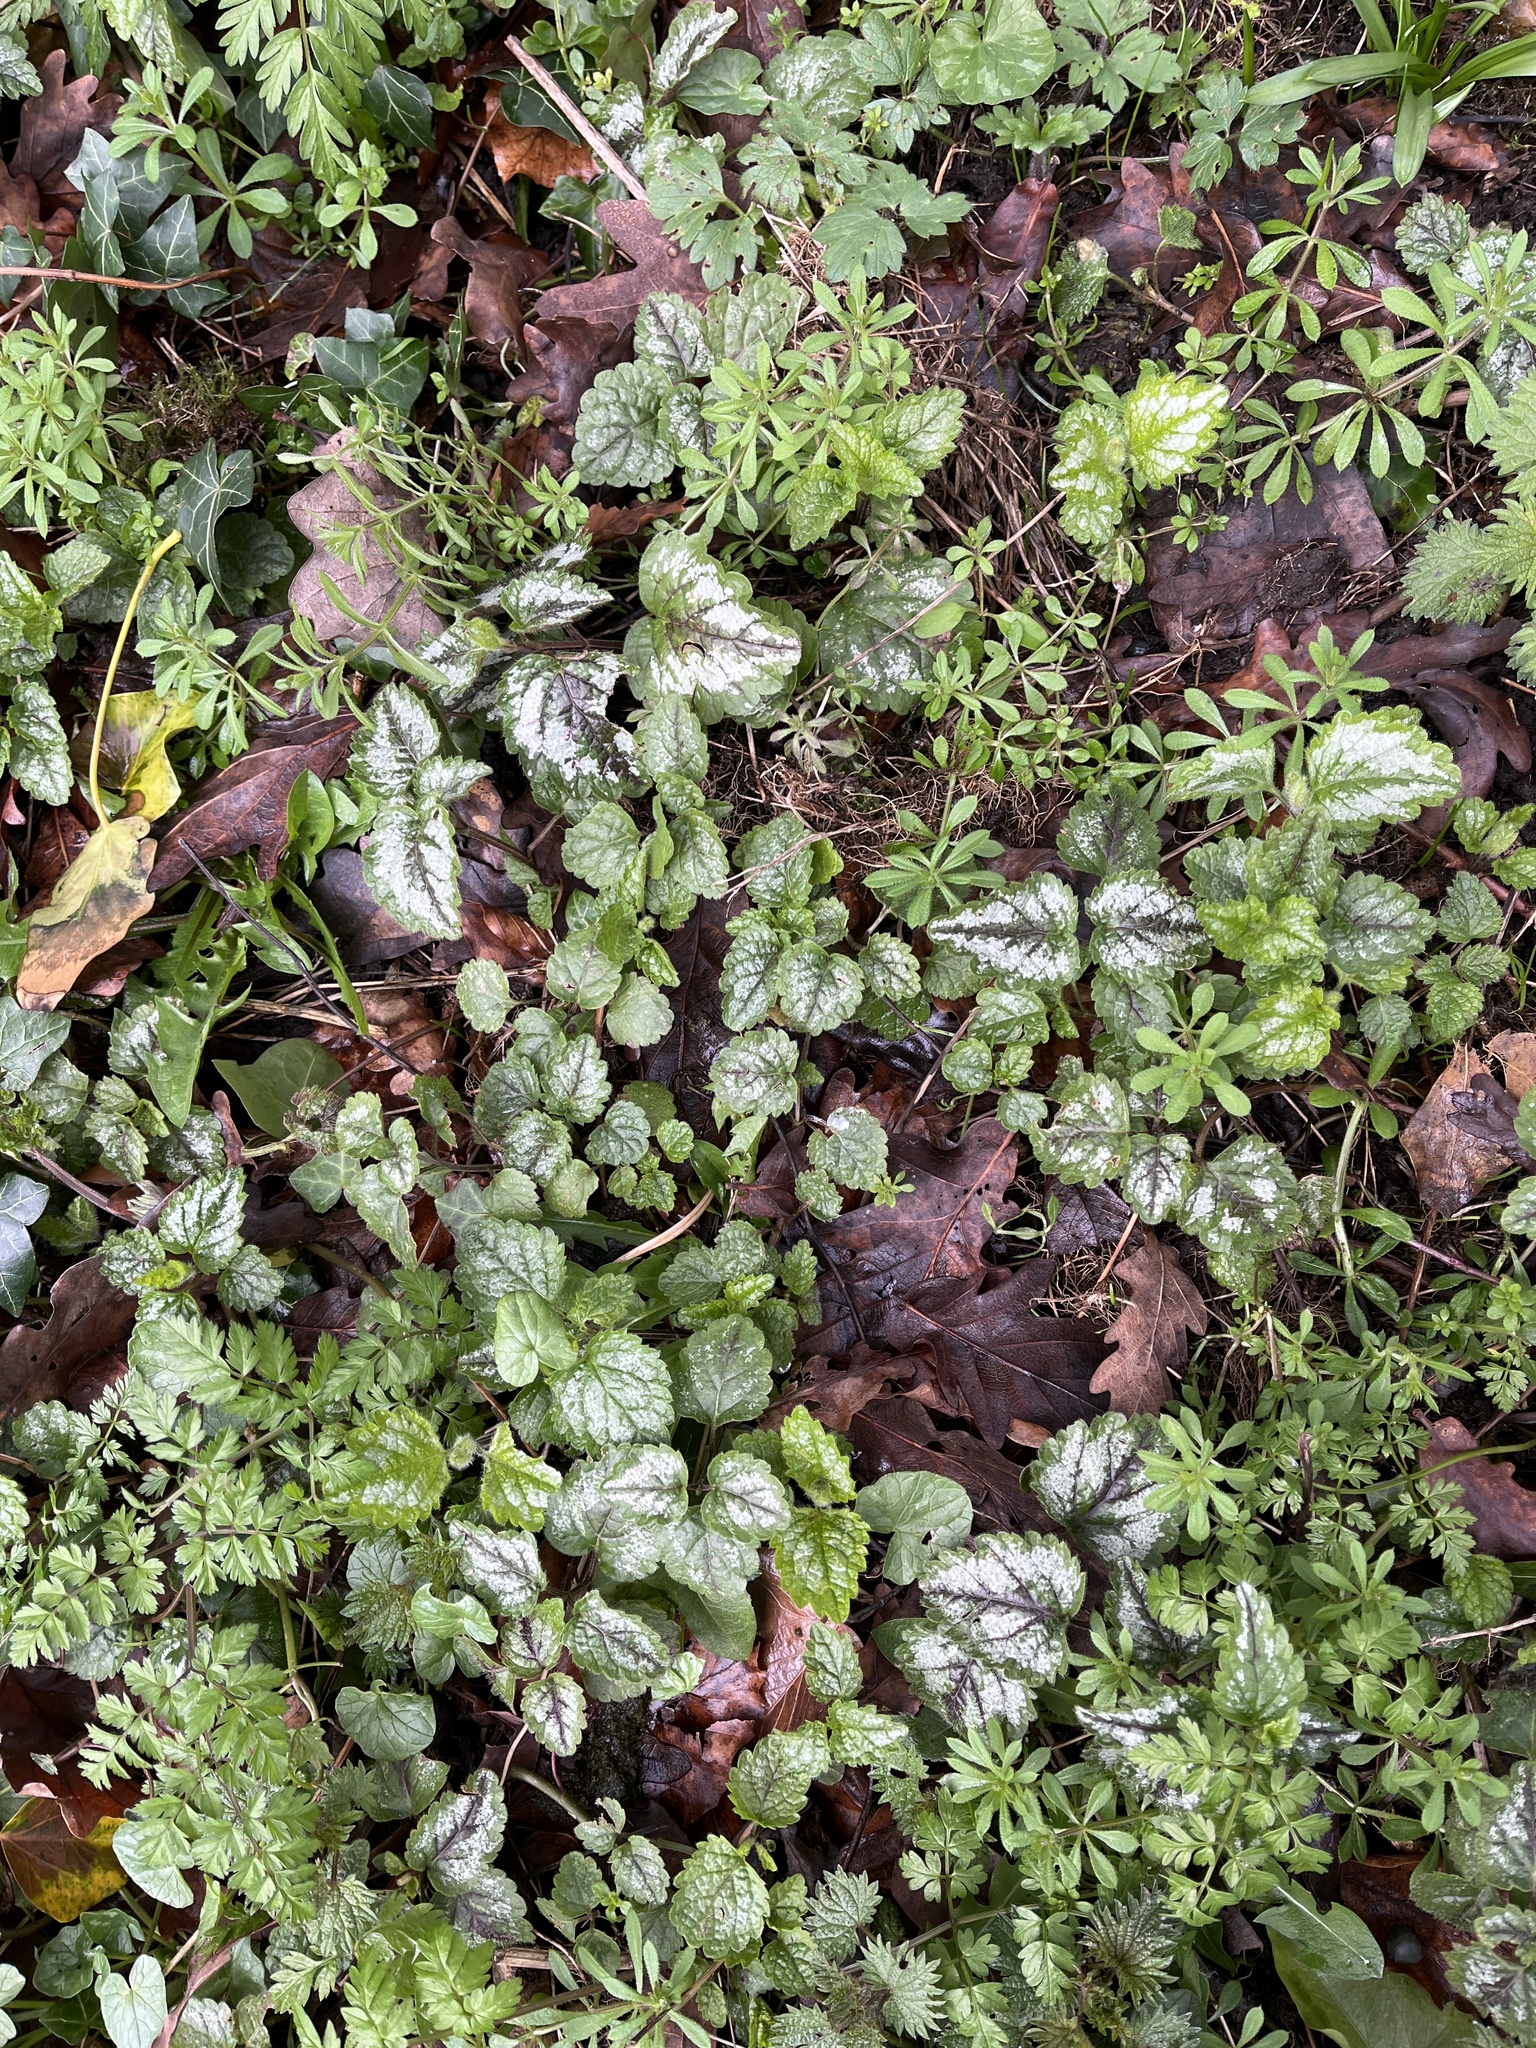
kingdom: Plantae
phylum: Tracheophyta
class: Magnoliopsida
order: Lamiales
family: Lamiaceae
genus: Lamium
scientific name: Lamium galeobdolon
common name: Yellow archangel
